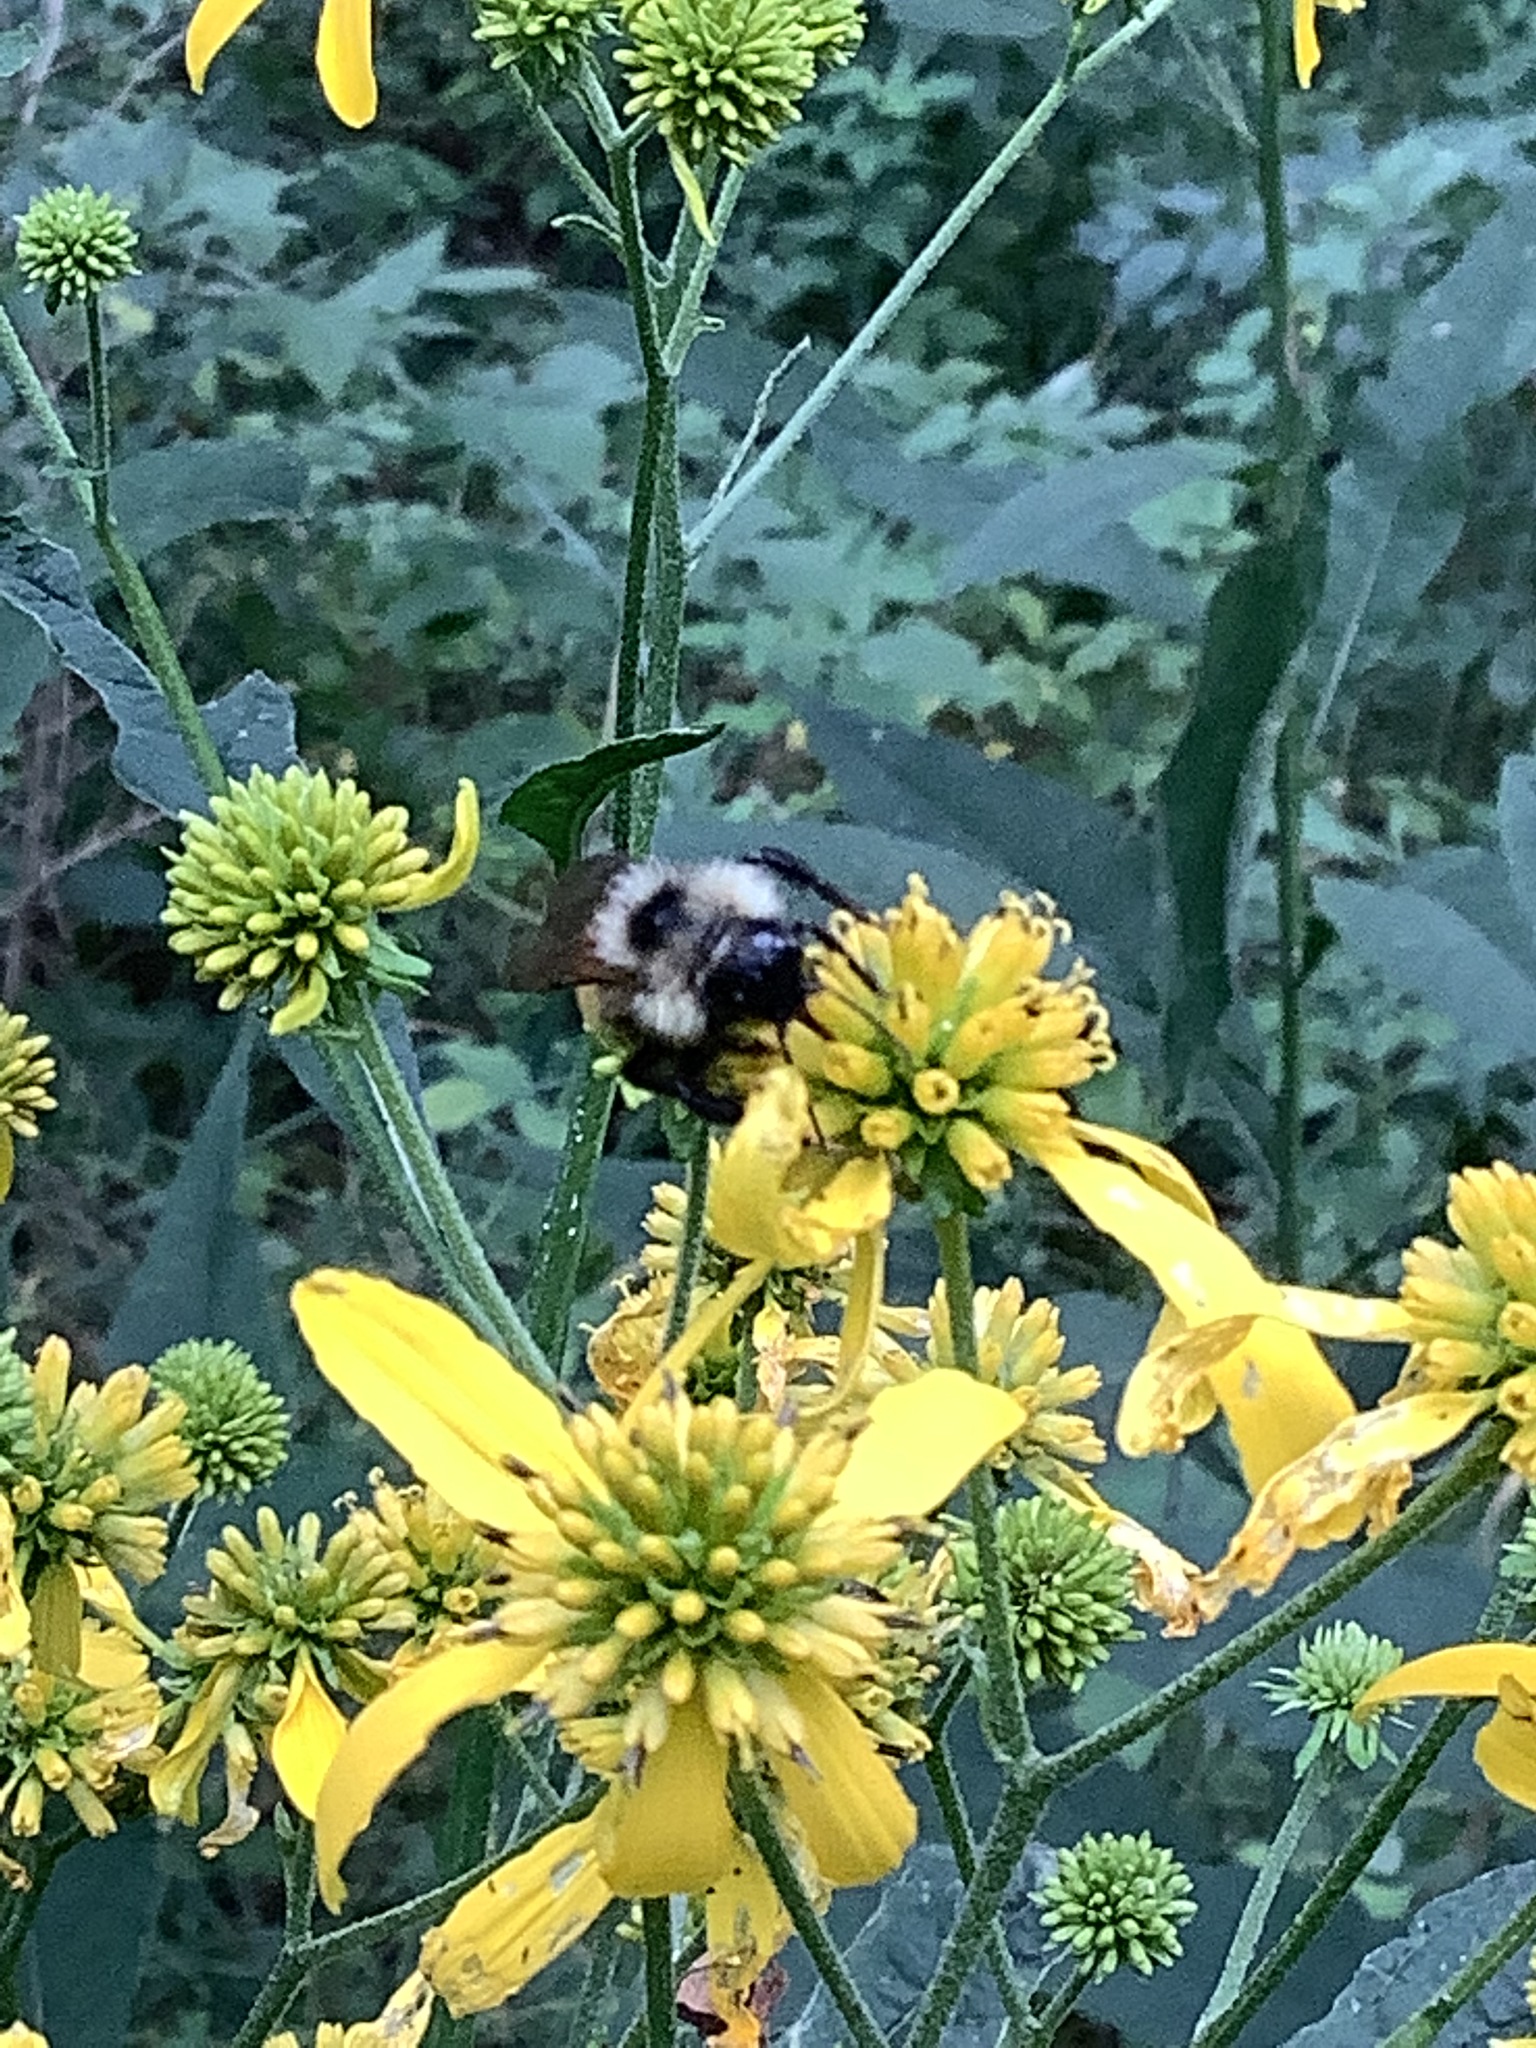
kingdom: Animalia
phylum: Arthropoda
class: Insecta
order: Hymenoptera
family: Apidae
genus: Bombus
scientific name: Bombus citrinus
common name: Lemon cuckoo bumble bee
